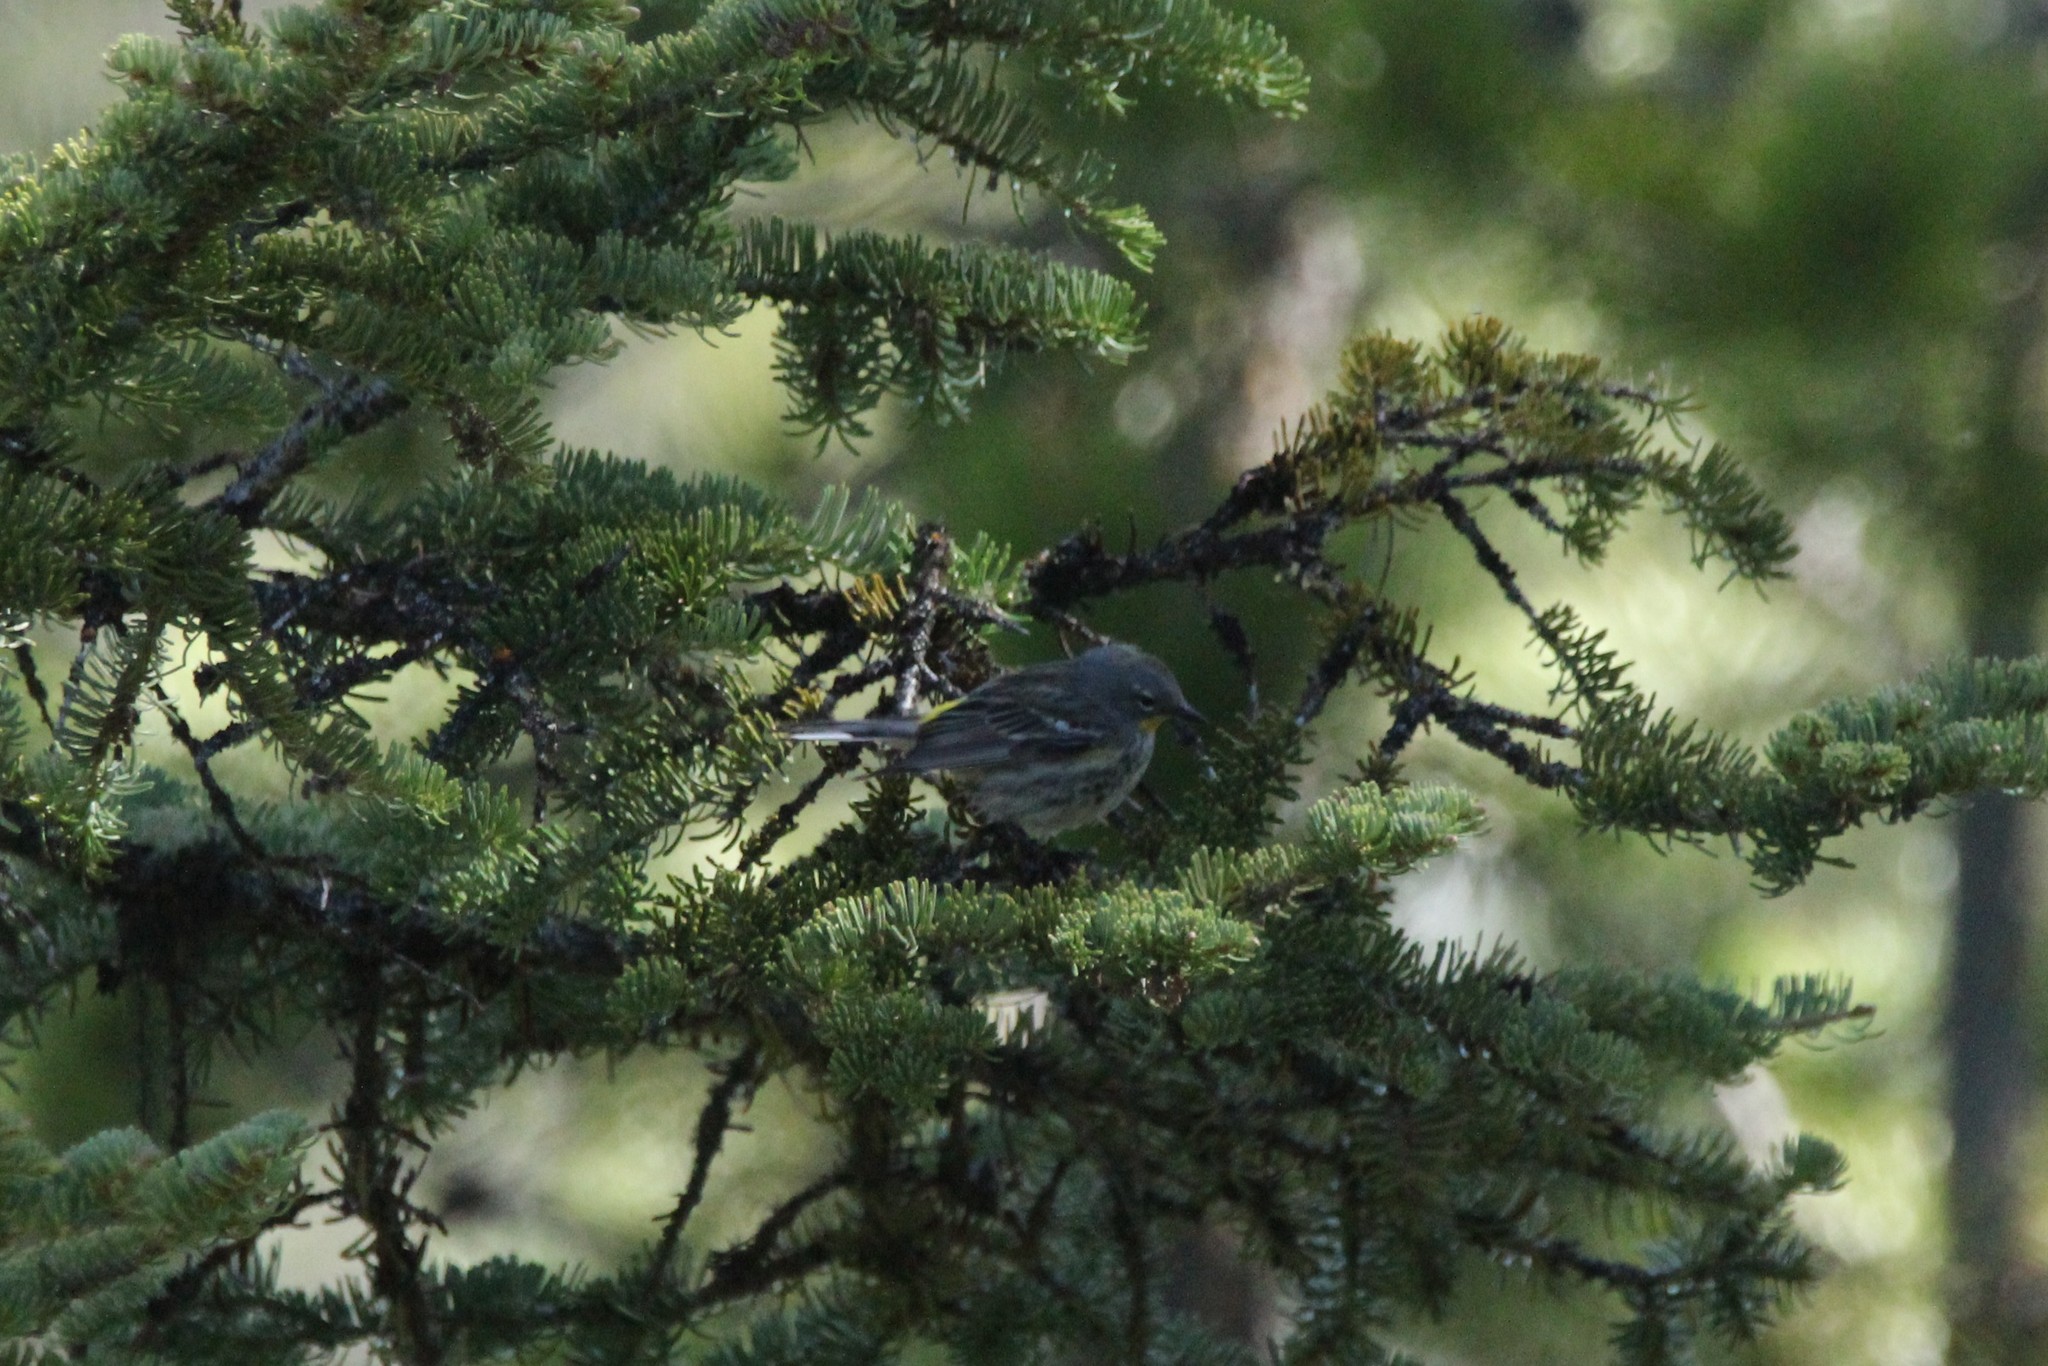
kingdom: Animalia
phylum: Chordata
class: Aves
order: Passeriformes
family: Parulidae
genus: Setophaga
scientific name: Setophaga coronata
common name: Myrtle warbler
